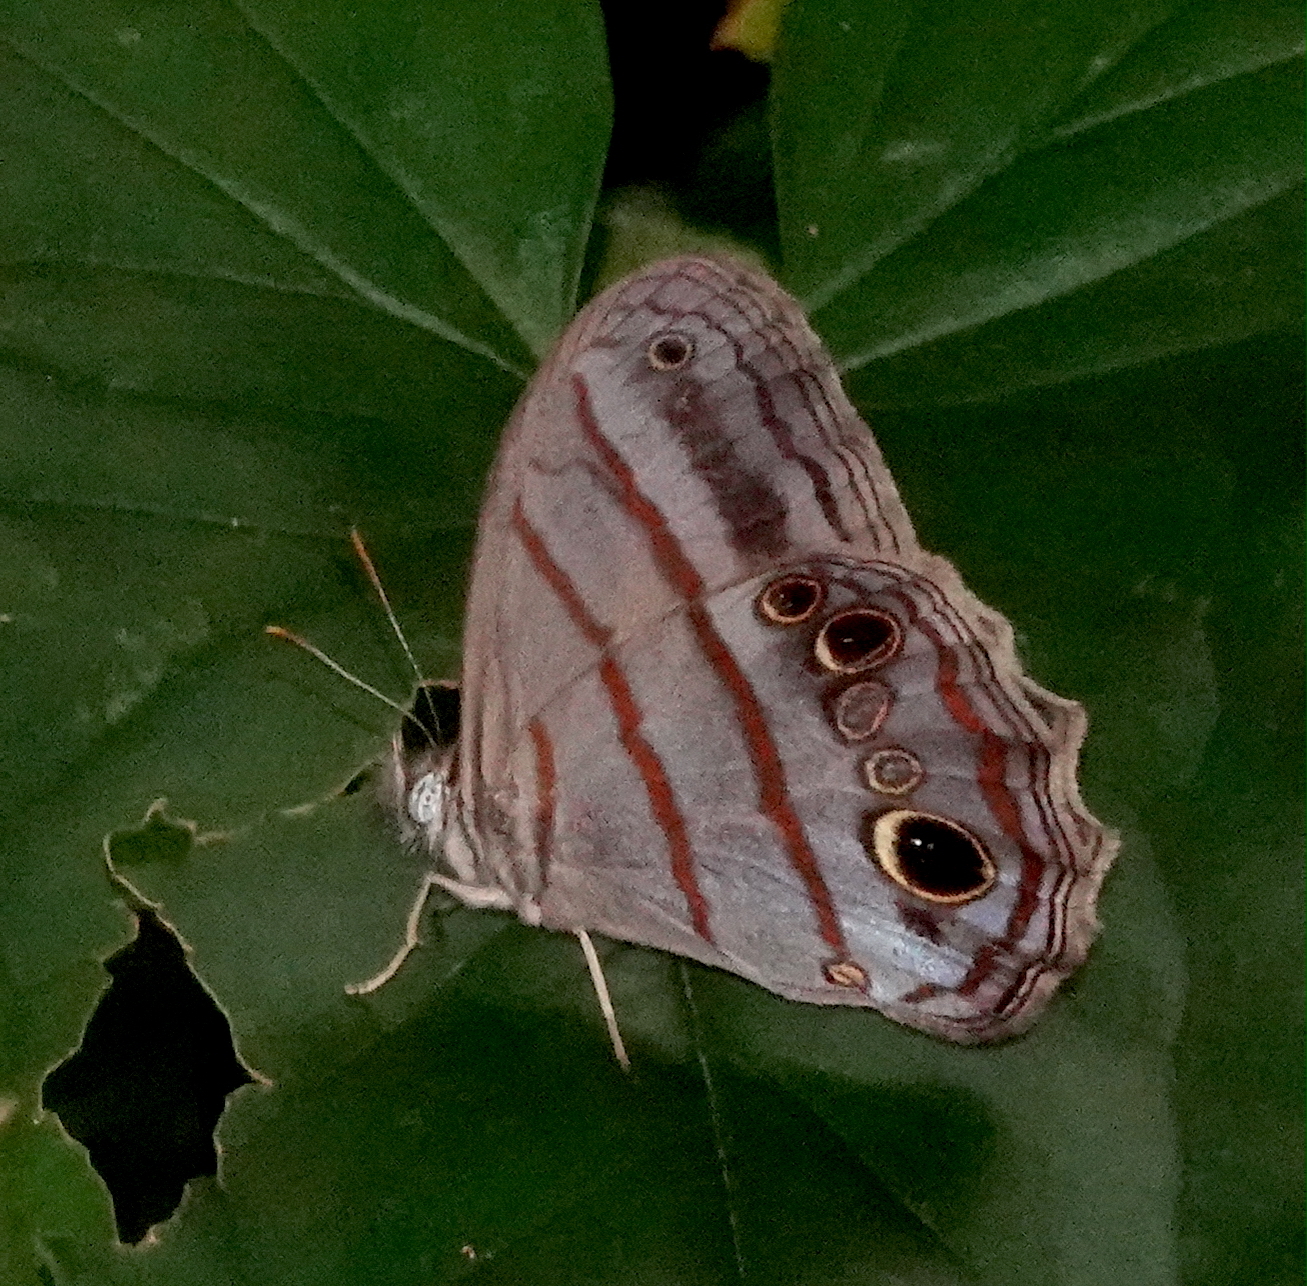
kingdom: Animalia
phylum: Arthropoda
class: Insecta
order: Lepidoptera
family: Nymphalidae
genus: Magneuptychia
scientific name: Magneuptychia libye
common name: Blue-gray satyr
